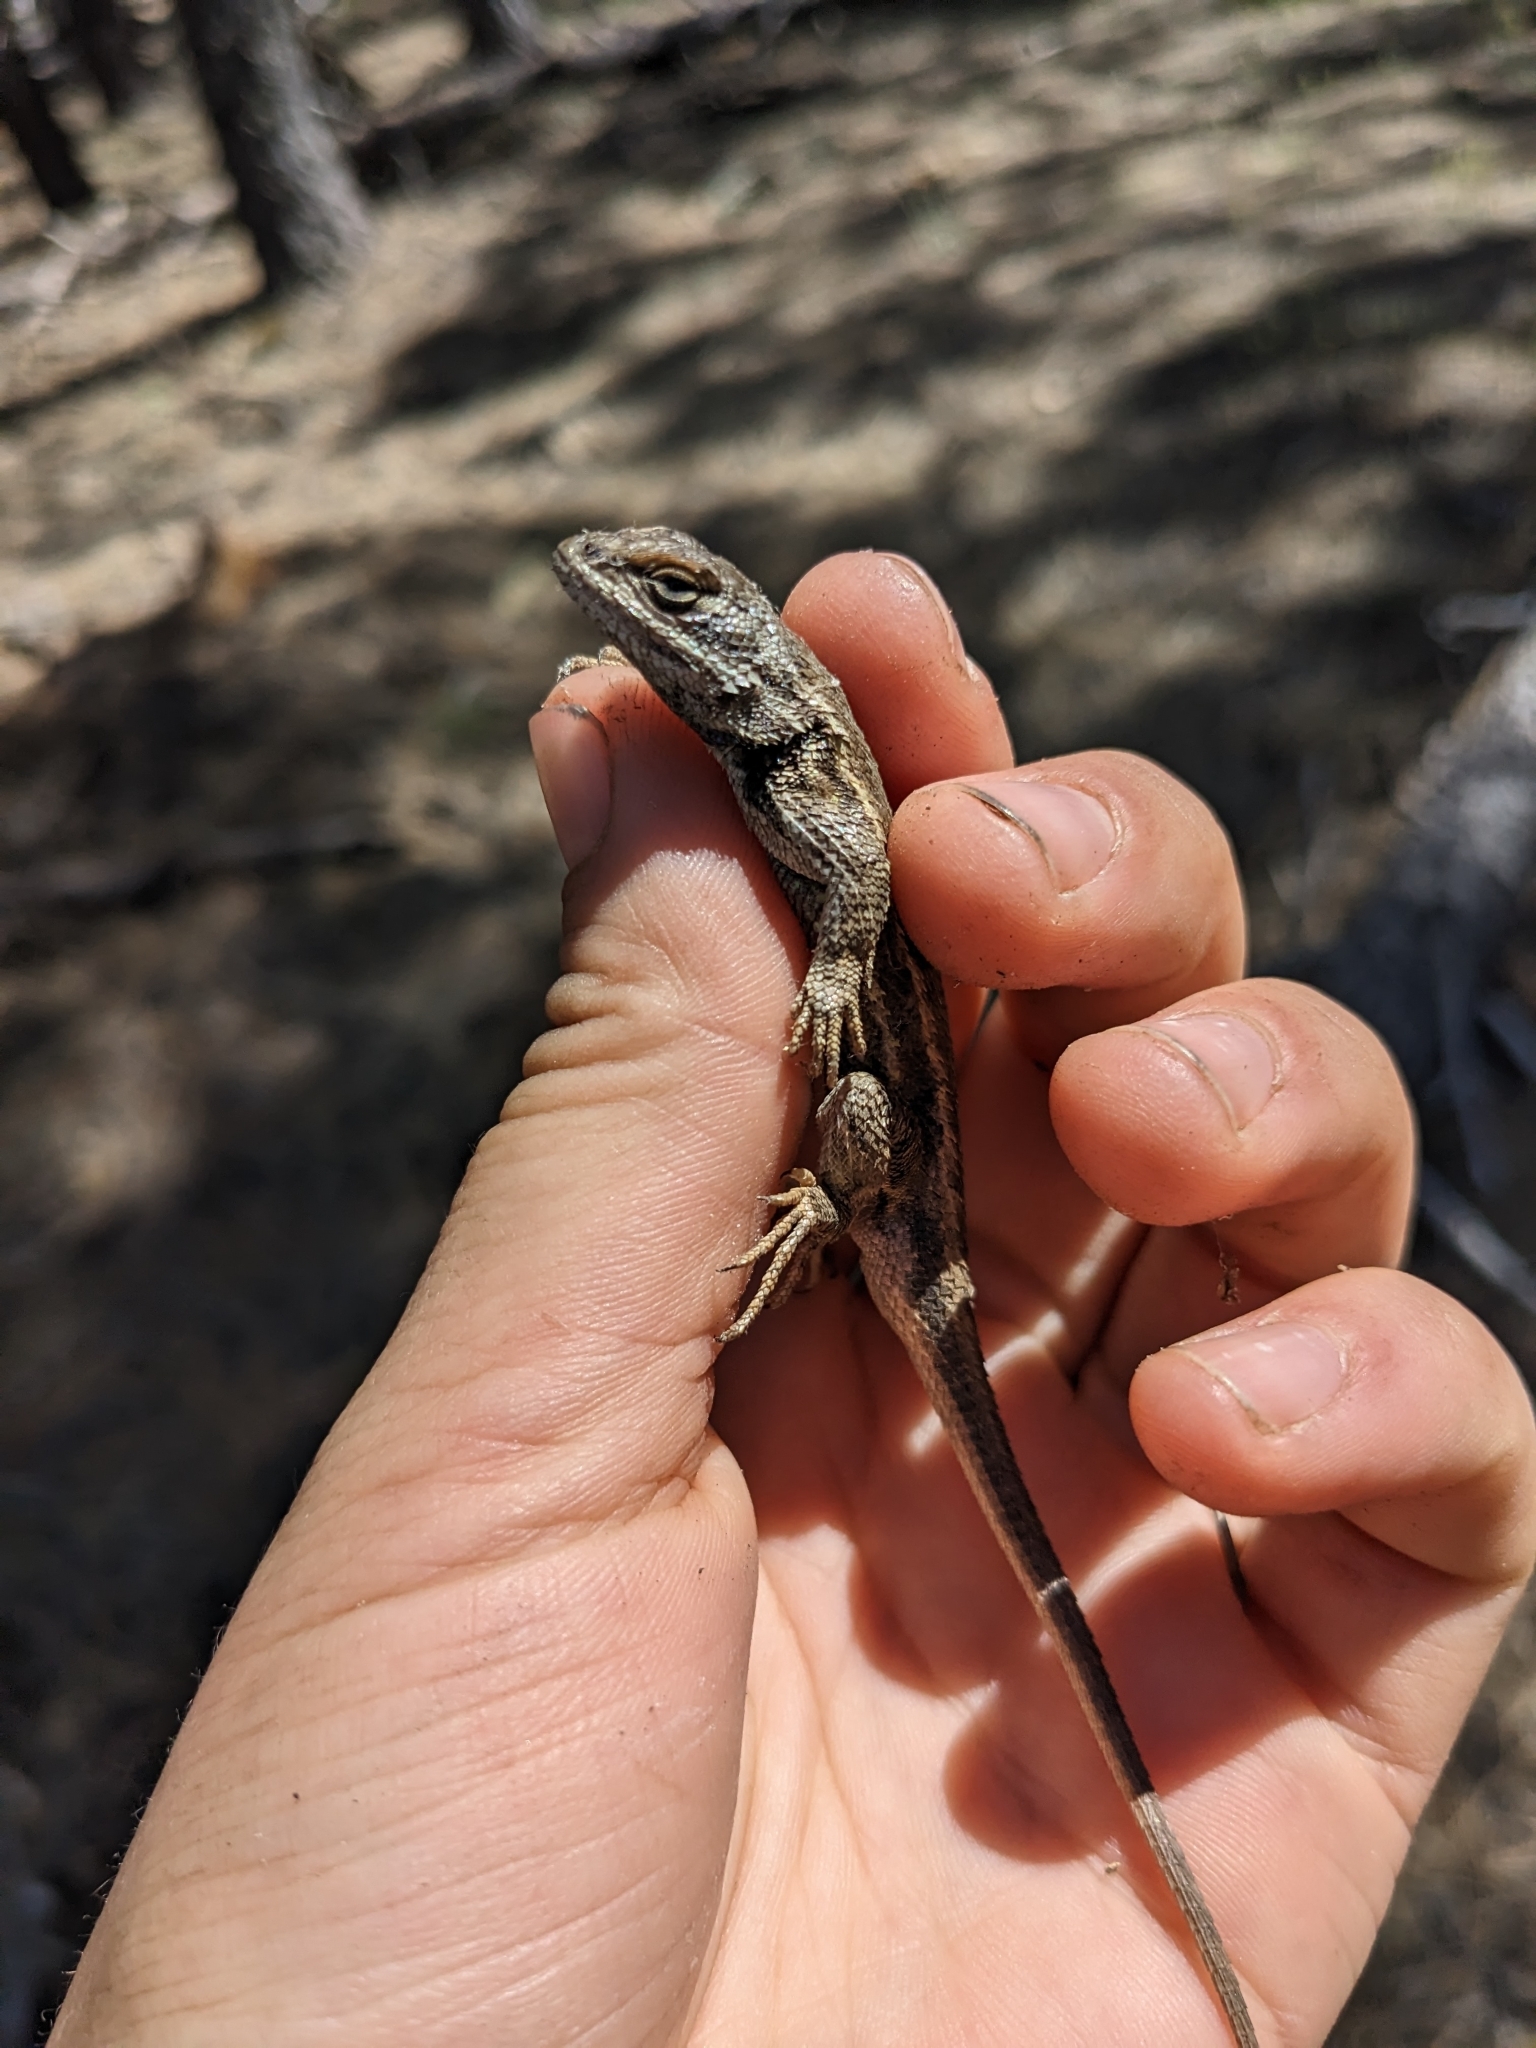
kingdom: Animalia
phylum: Chordata
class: Squamata
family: Phrynosomatidae
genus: Sceloporus
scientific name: Sceloporus tristichus
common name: Plateau fence lizard
